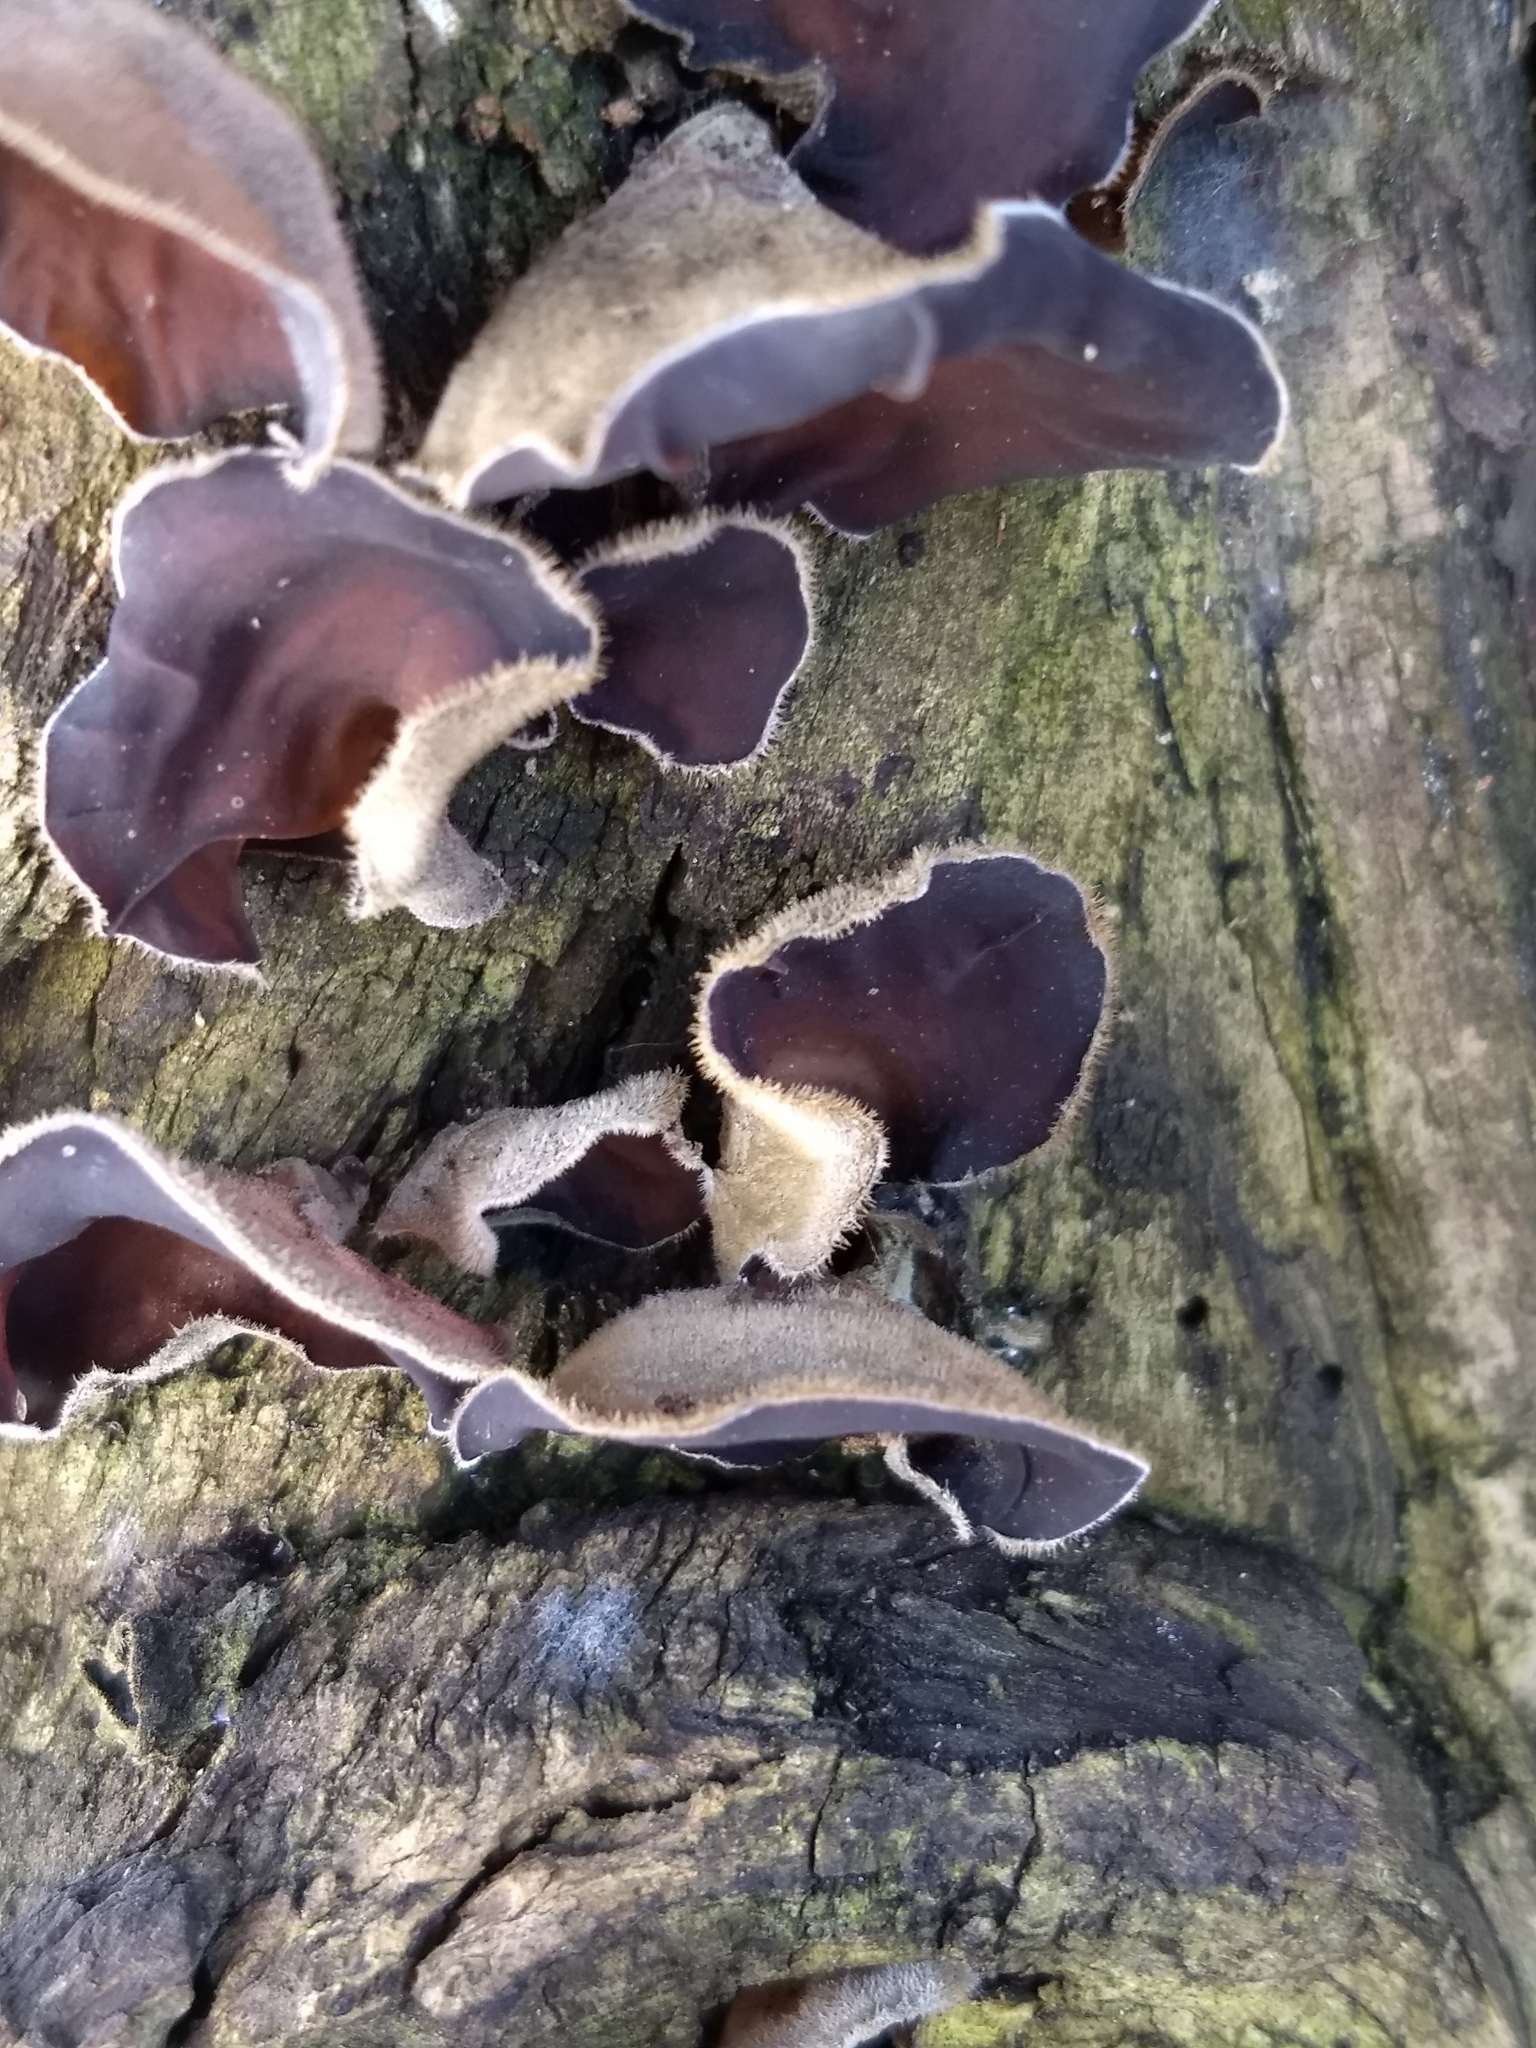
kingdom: Fungi
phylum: Basidiomycota
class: Agaricomycetes
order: Auriculariales
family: Auriculariaceae
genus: Auricularia
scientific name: Auricularia cornea
